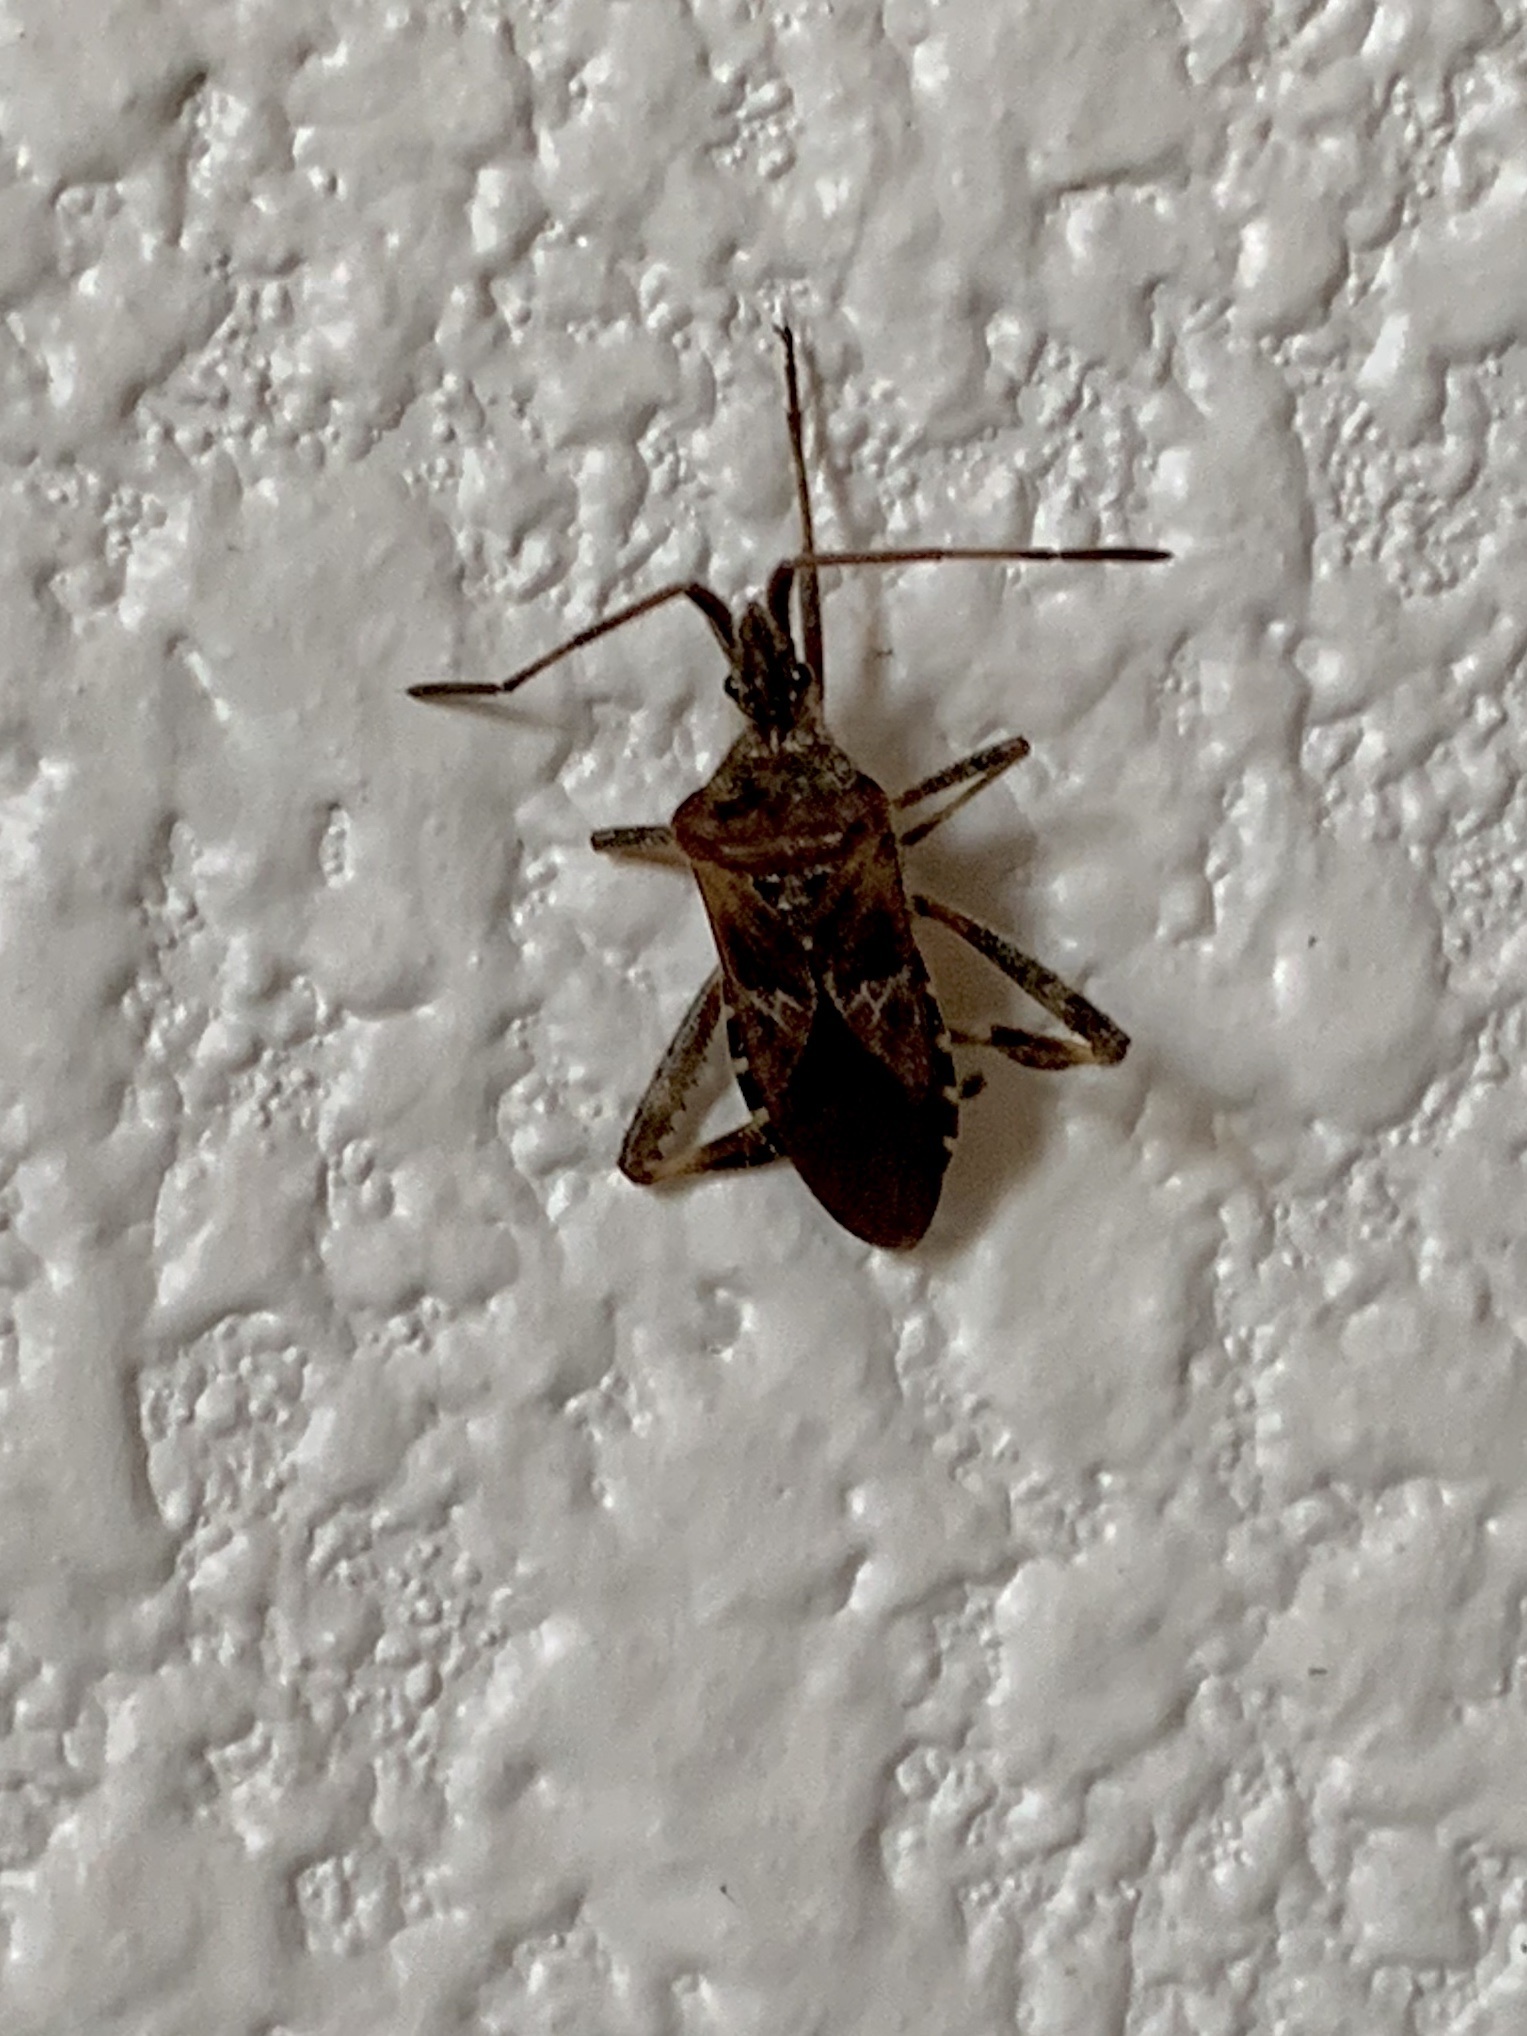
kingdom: Animalia
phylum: Arthropoda
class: Insecta
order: Hemiptera
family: Coreidae
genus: Leptoglossus
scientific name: Leptoglossus occidentalis
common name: Western conifer-seed bug
